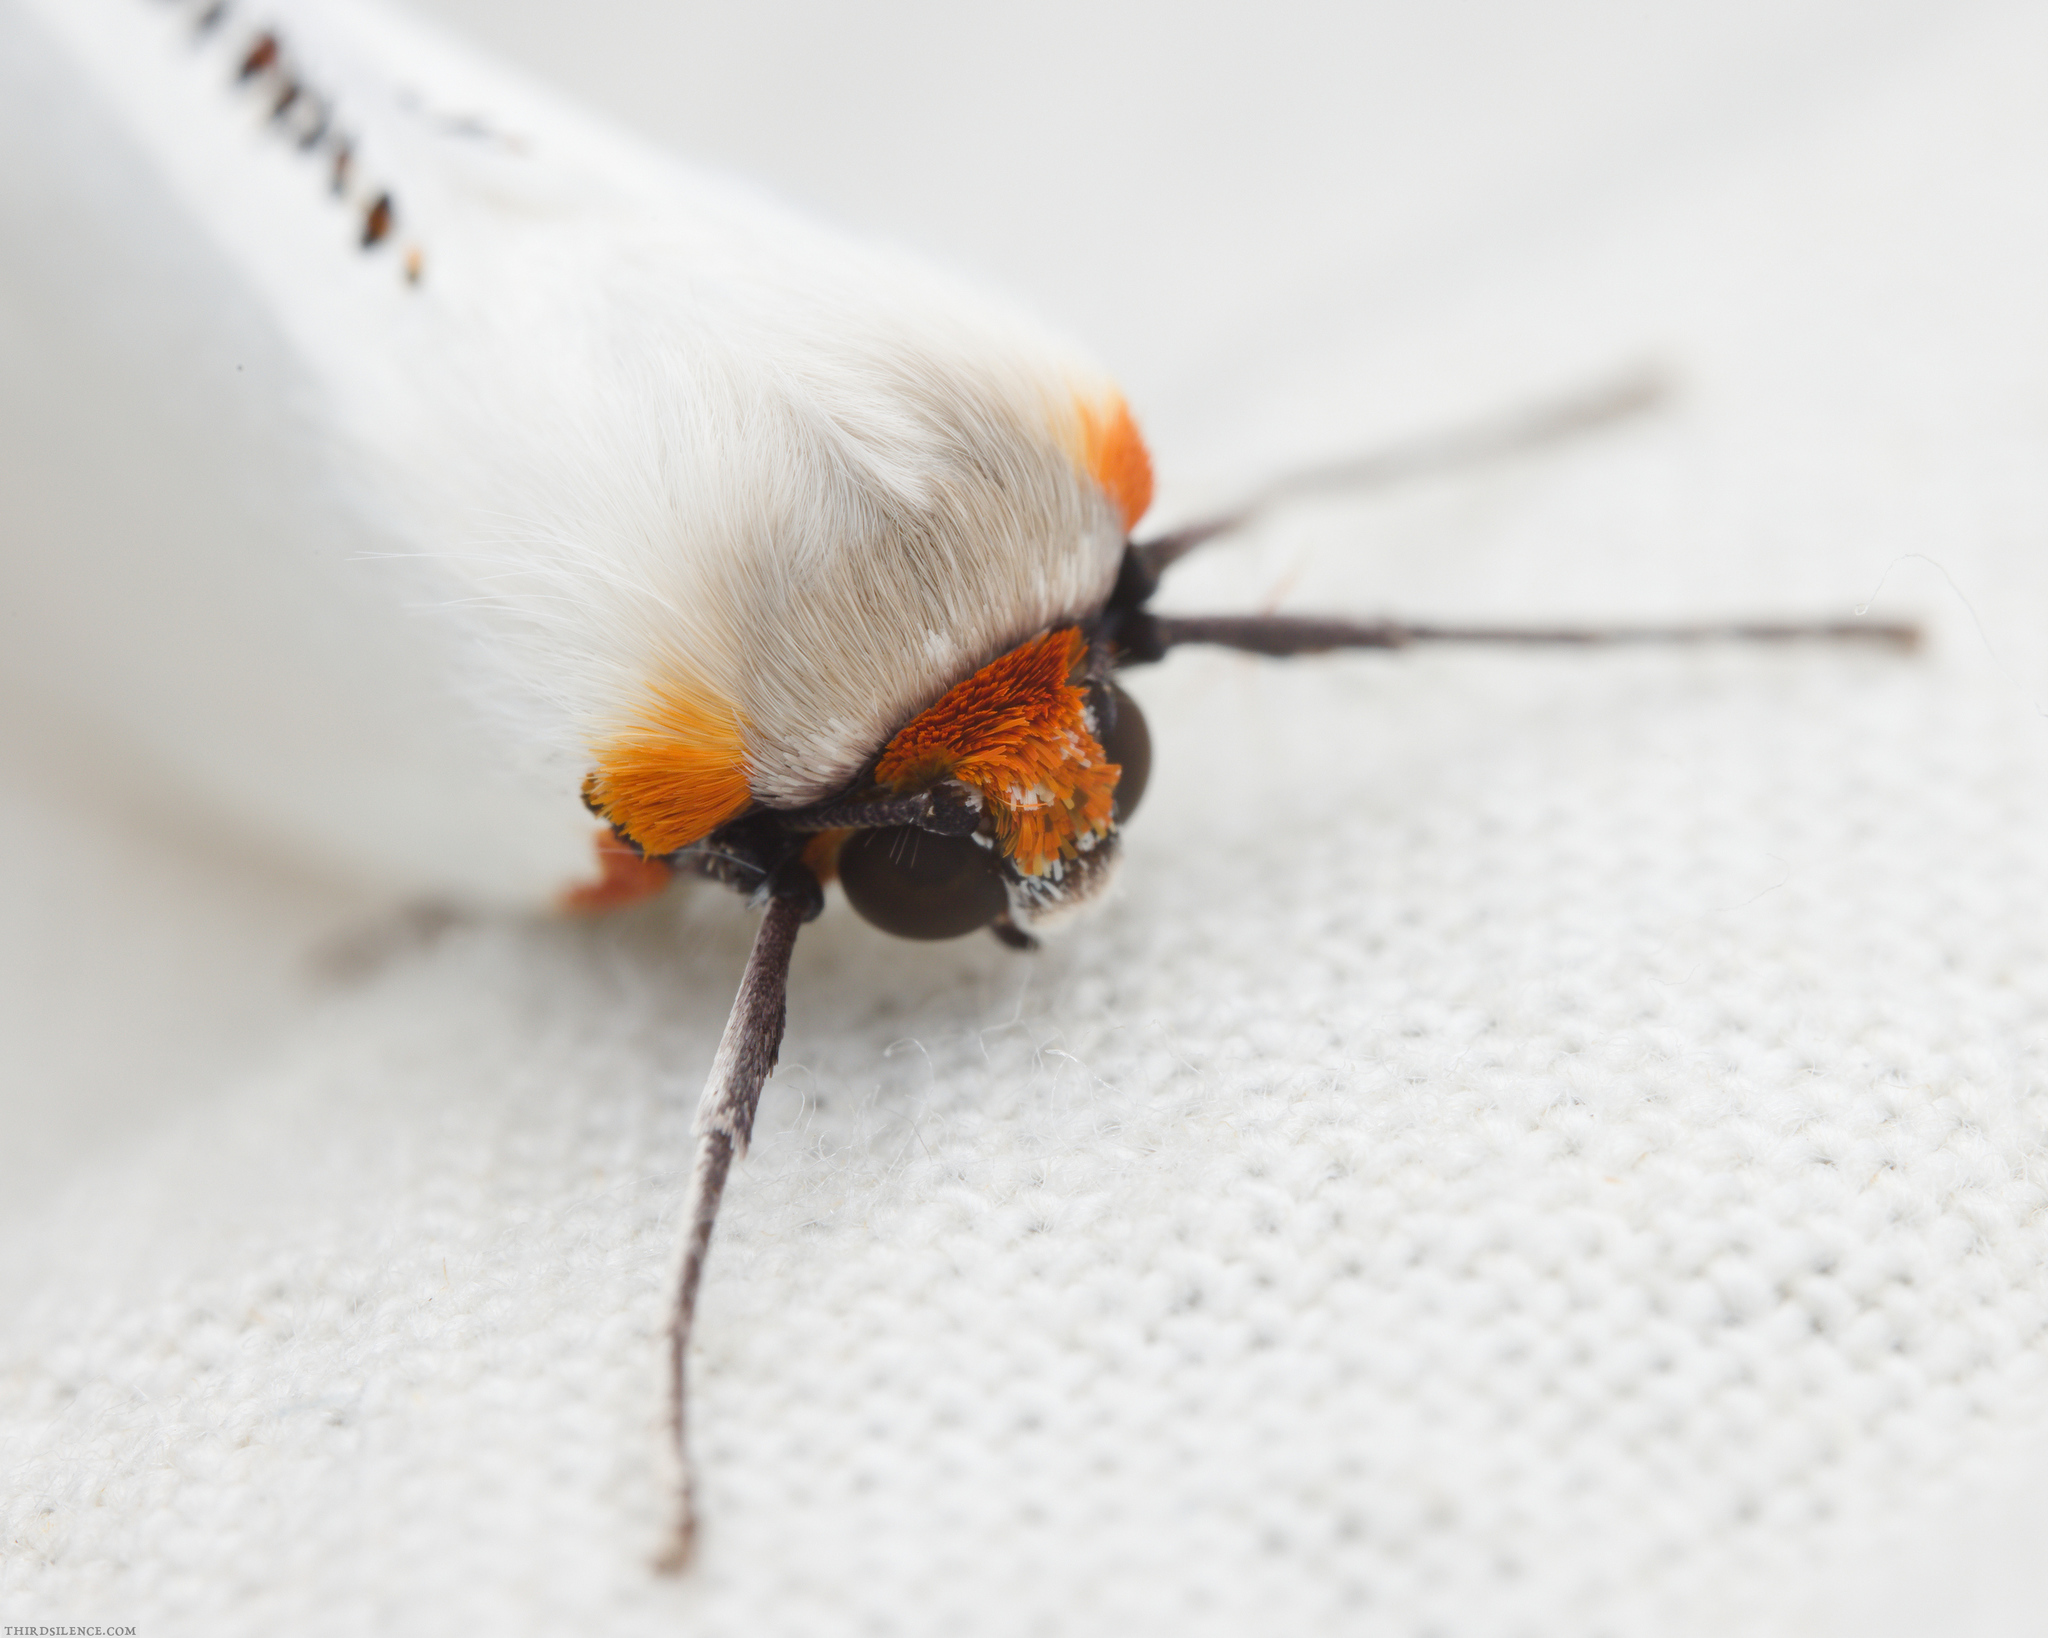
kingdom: Animalia
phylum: Arthropoda
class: Insecta
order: Lepidoptera
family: Geometridae
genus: Thalaina
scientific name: Thalaina selenaea
